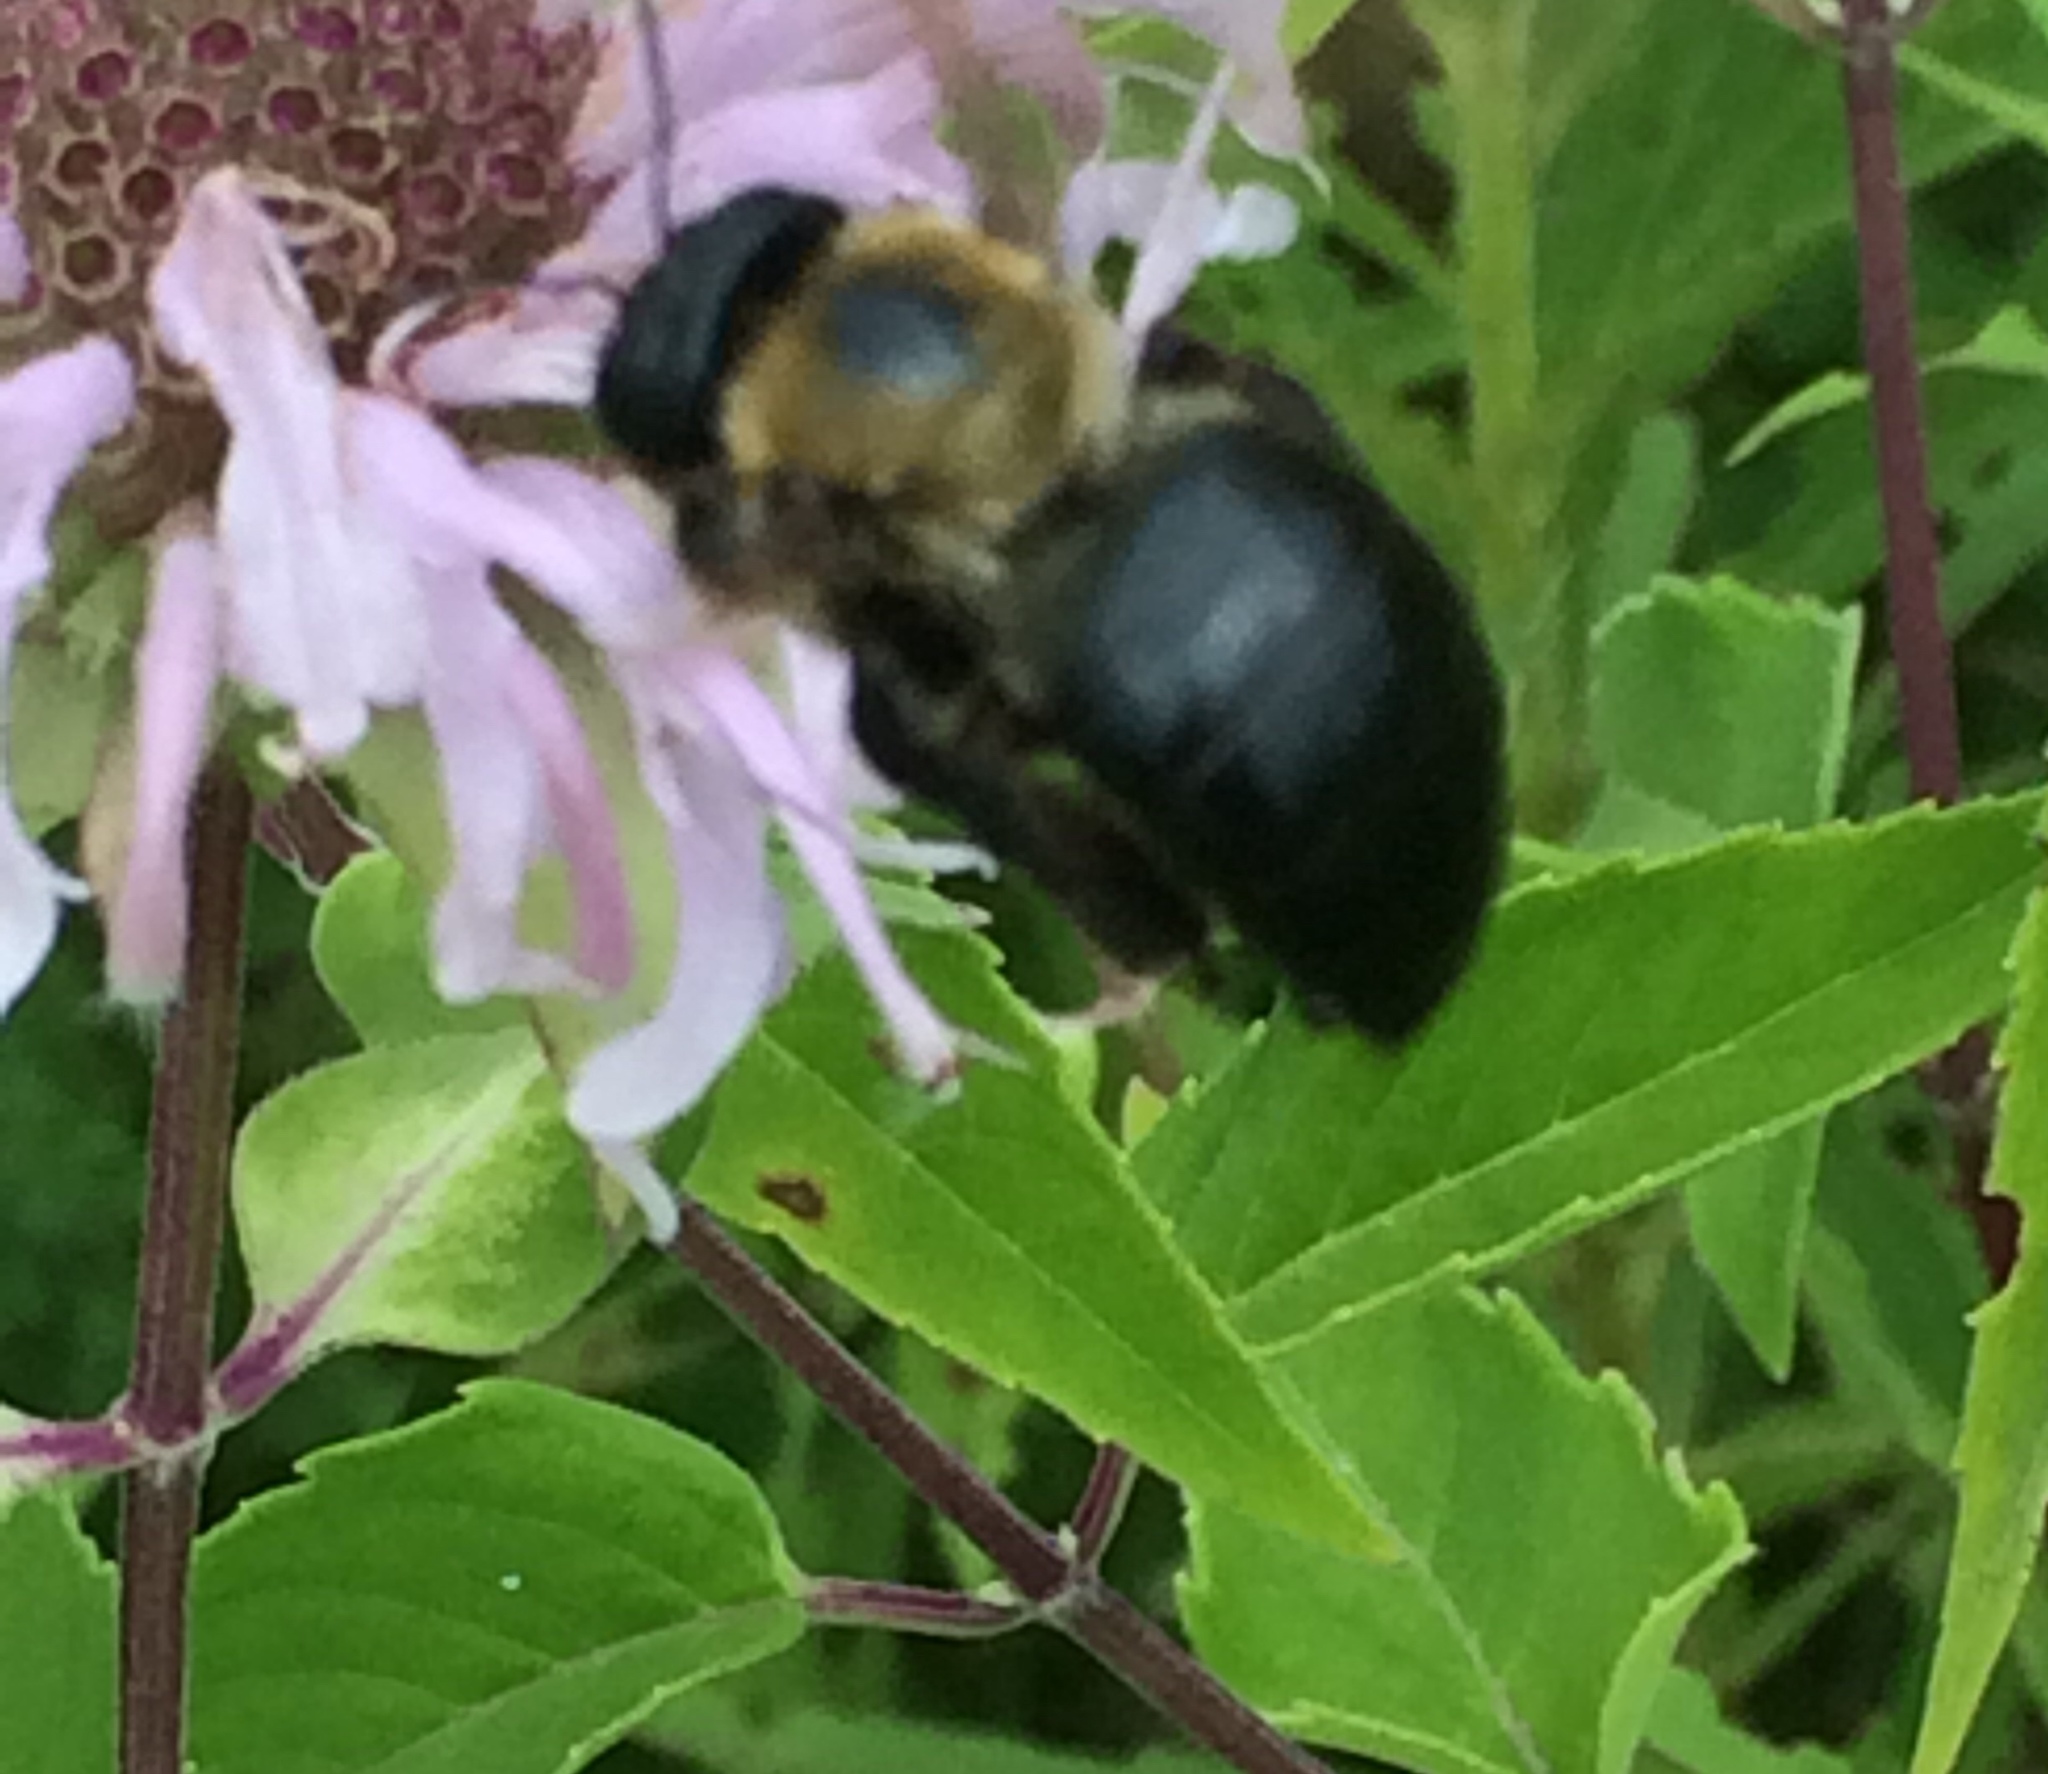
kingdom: Animalia
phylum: Arthropoda
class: Insecta
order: Hymenoptera
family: Apidae
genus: Xylocopa
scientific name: Xylocopa virginica
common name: Carpenter bee
